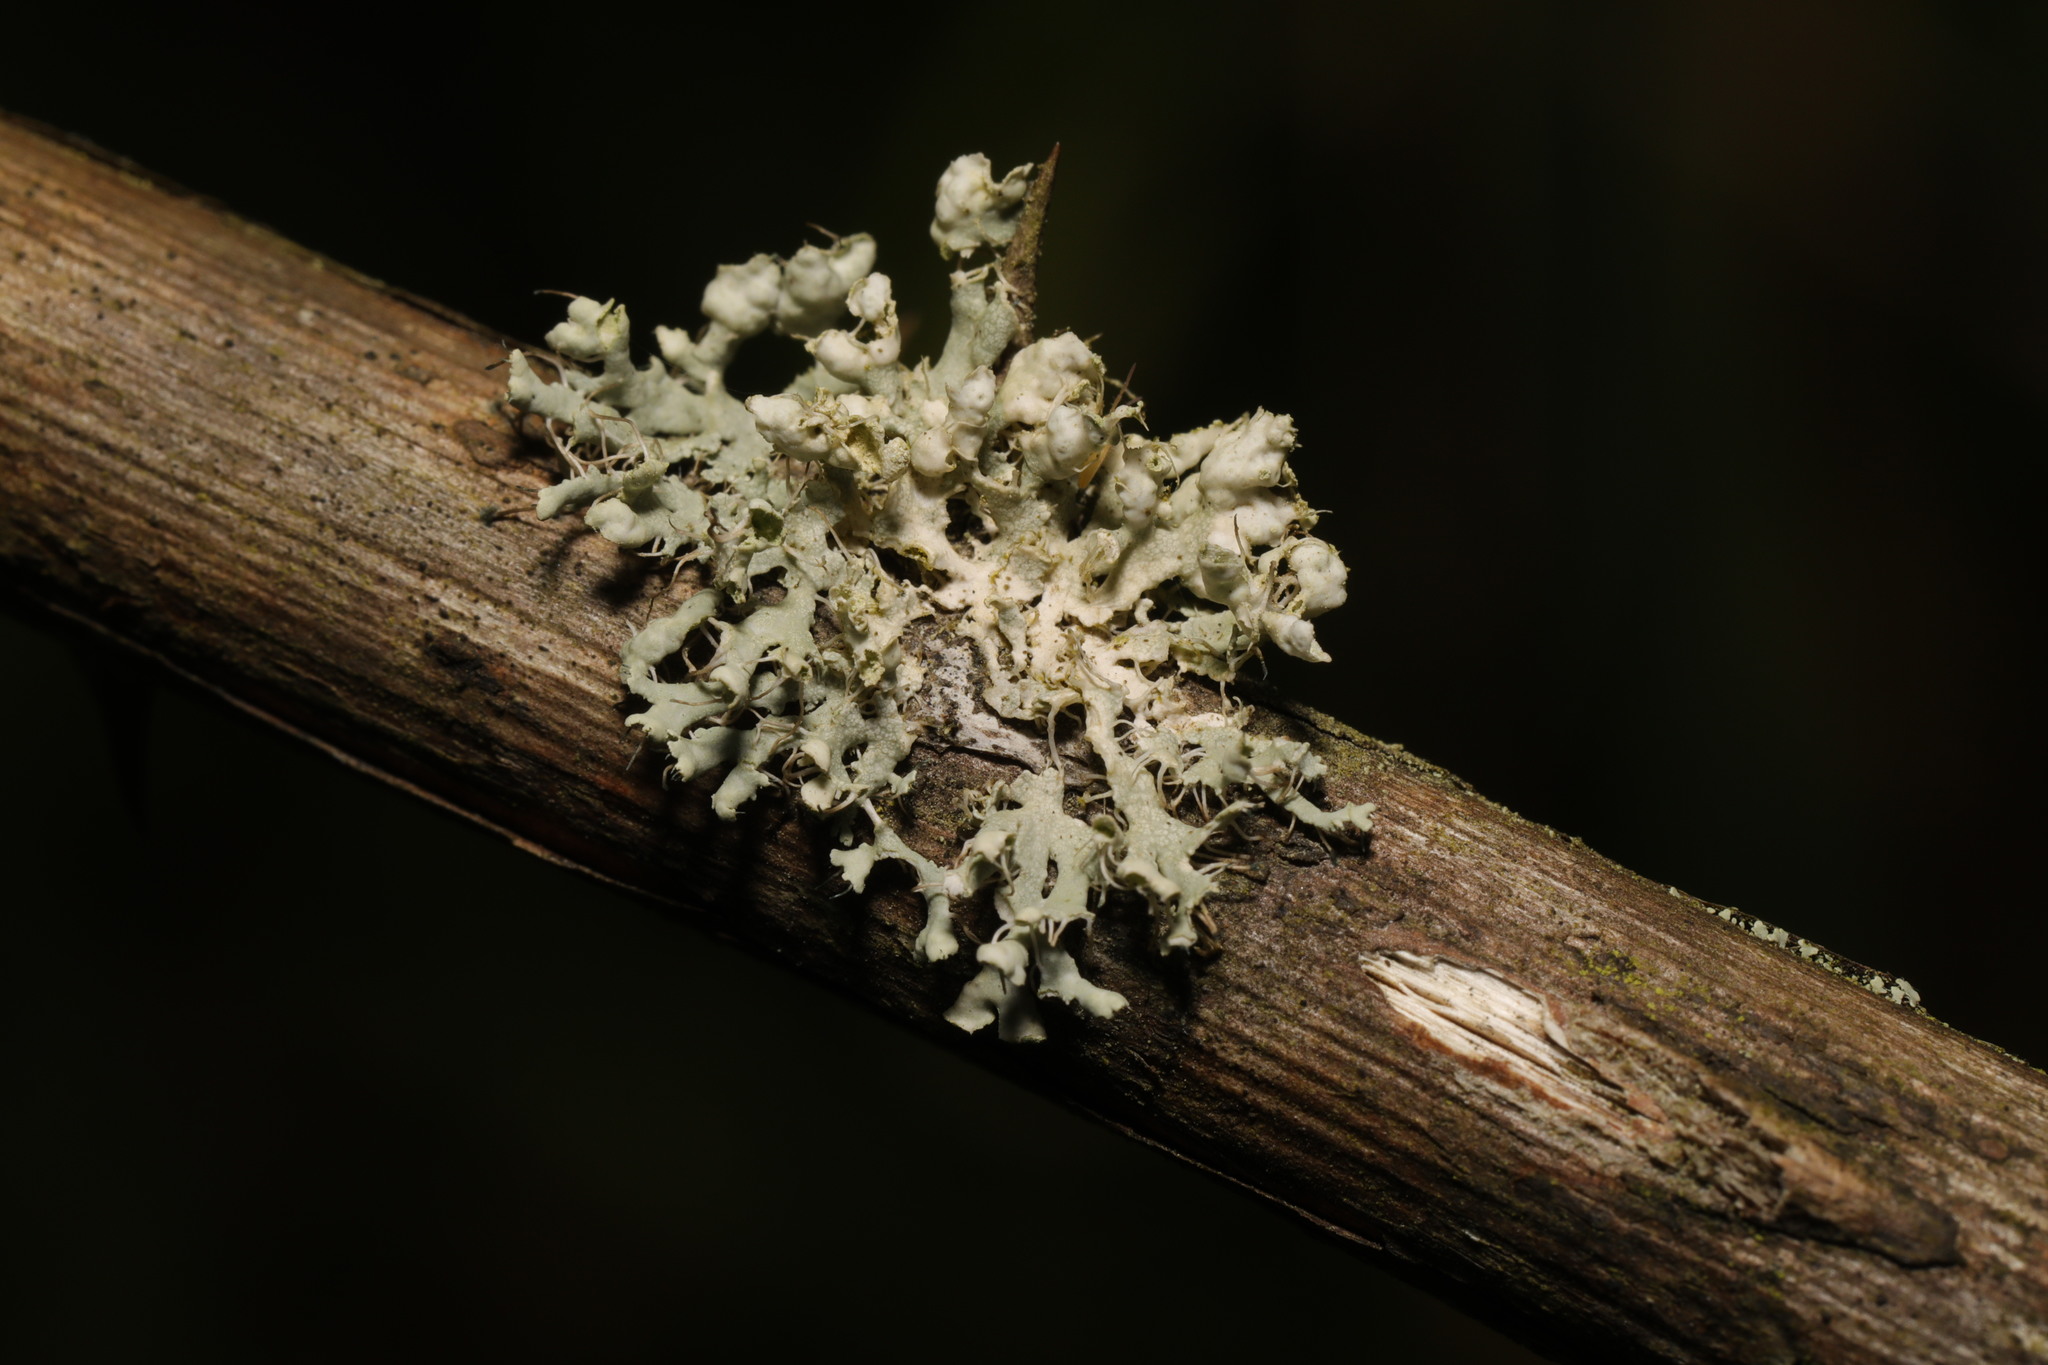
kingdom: Fungi
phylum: Ascomycota
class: Lecanoromycetes
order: Caliciales
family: Physciaceae
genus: Physcia
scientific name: Physcia adscendens
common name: Hooded rosette lichen
